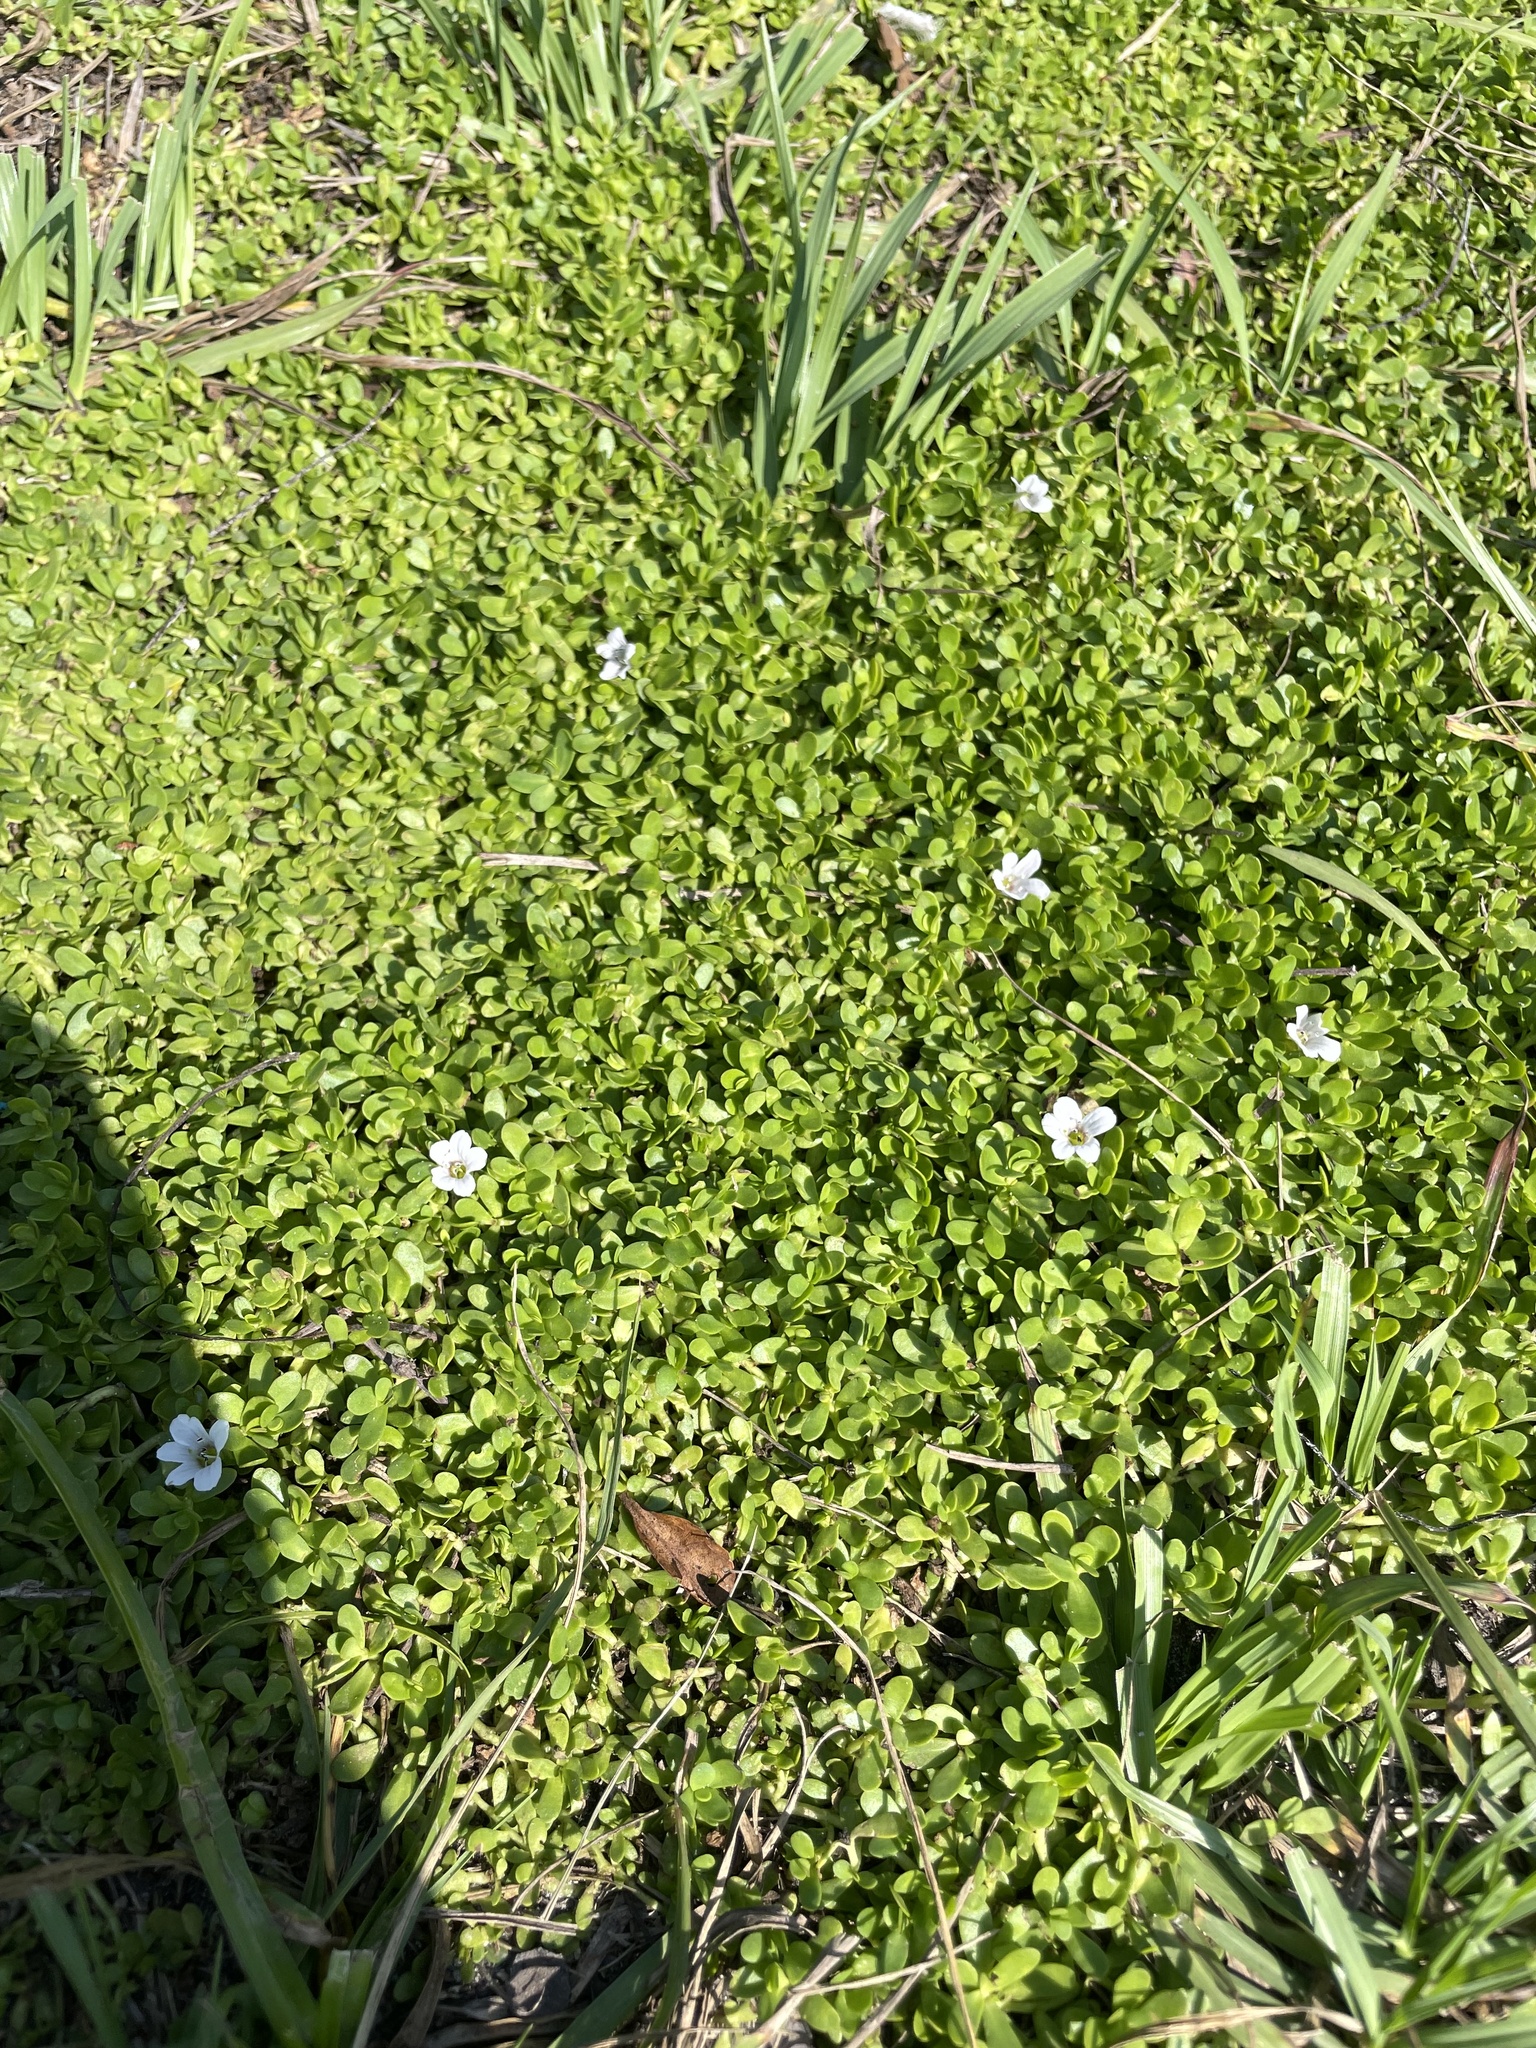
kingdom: Plantae
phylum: Tracheophyta
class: Magnoliopsida
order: Lamiales
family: Plantaginaceae
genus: Bacopa
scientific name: Bacopa monnieri
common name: Indian-pennywort
